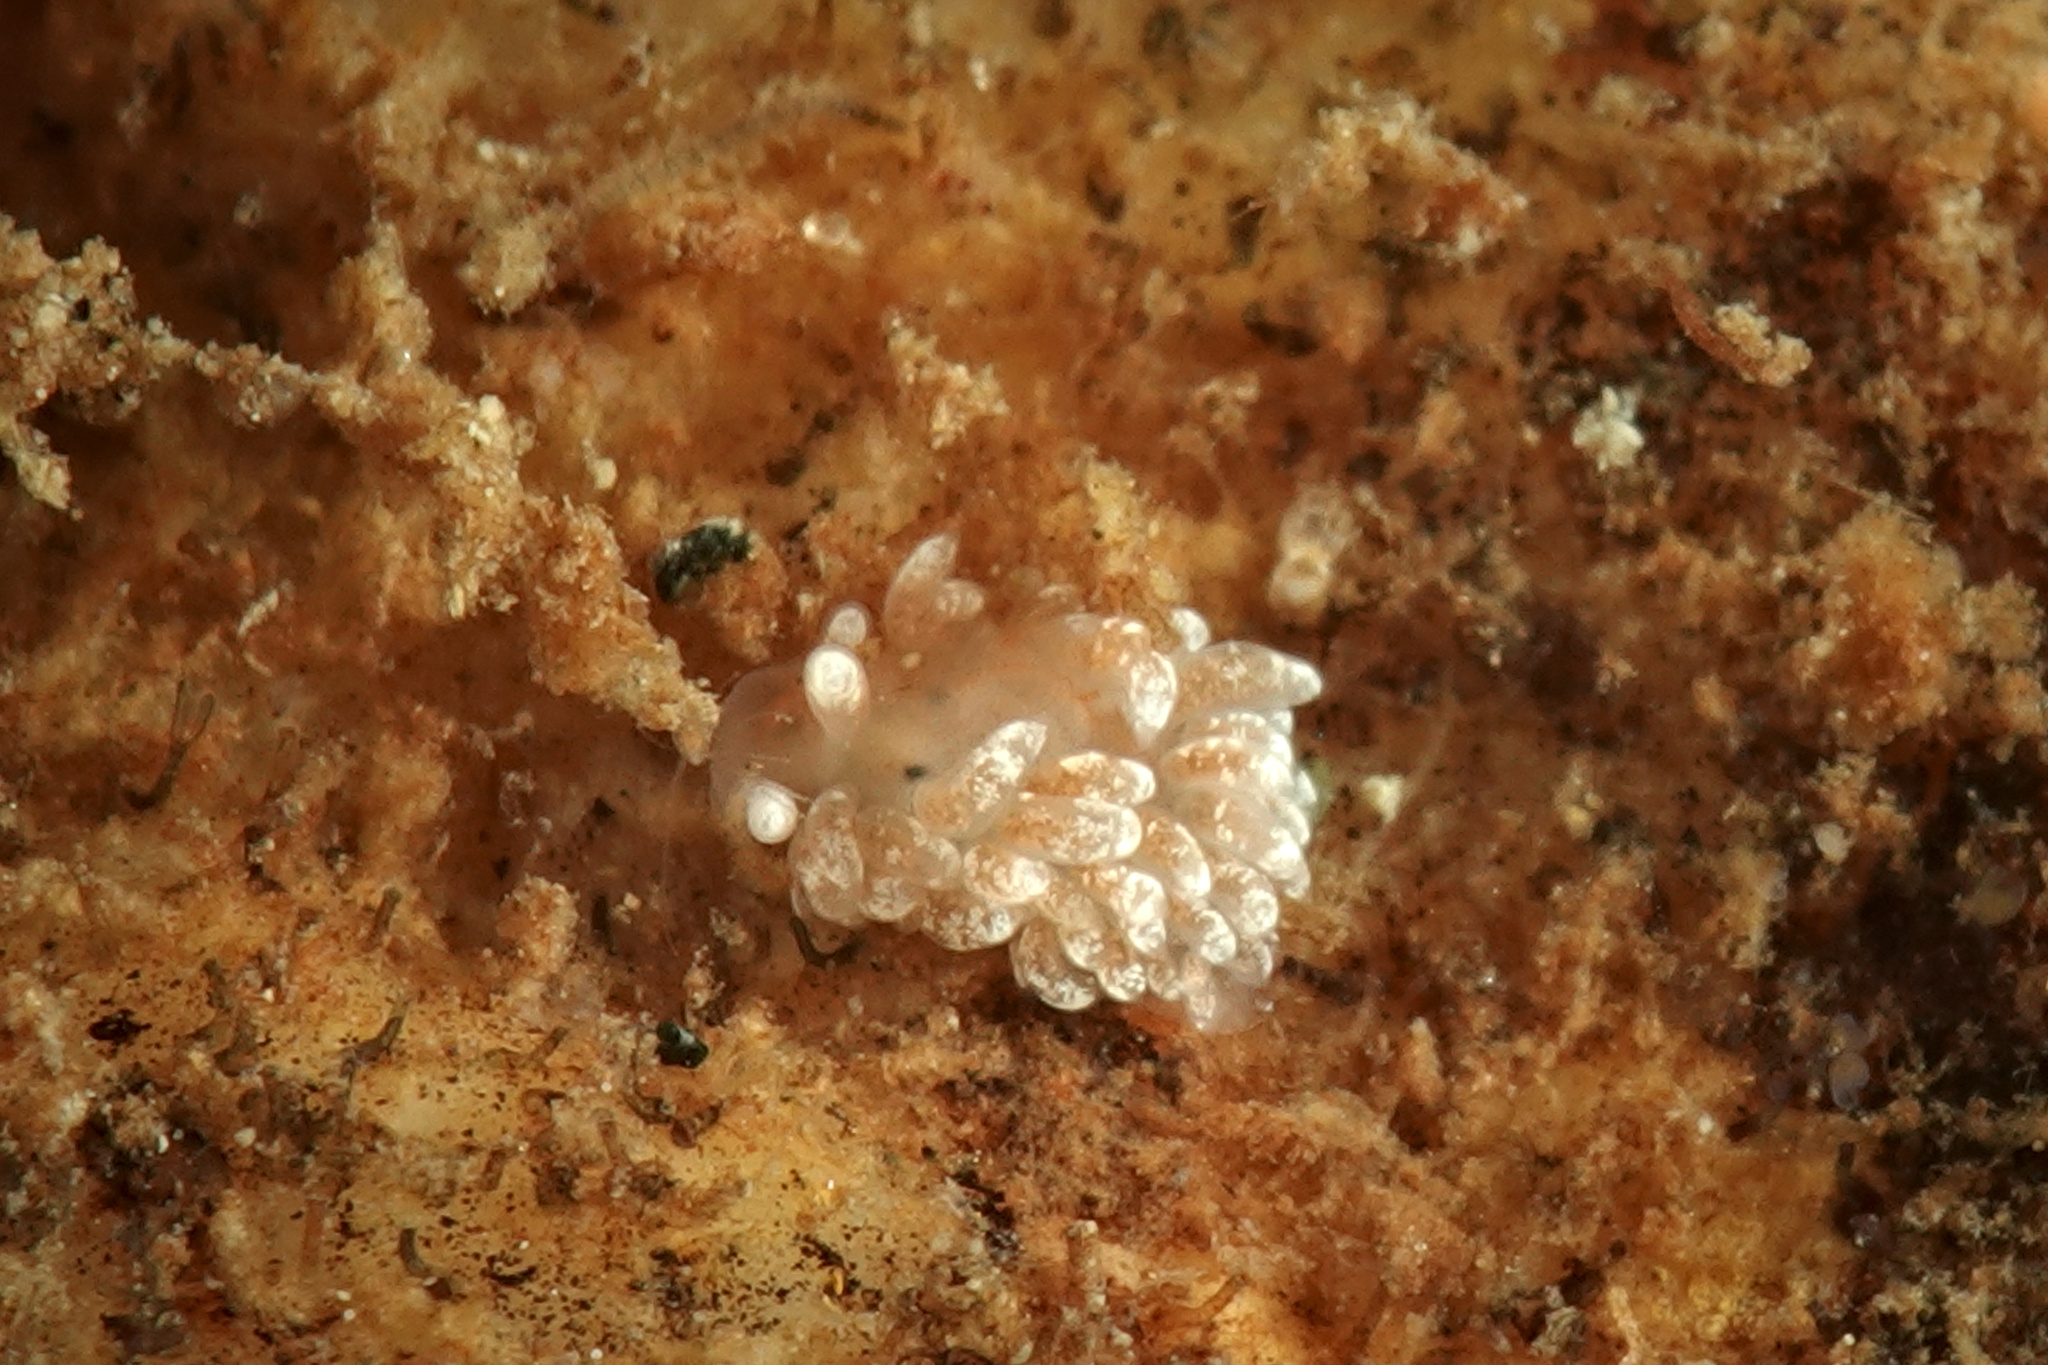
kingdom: Animalia
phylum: Mollusca
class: Gastropoda
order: Nudibranchia
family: Aeolidiidae
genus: Aeolidiella
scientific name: Aeolidiella glauca
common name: Orange-brown aeolid
